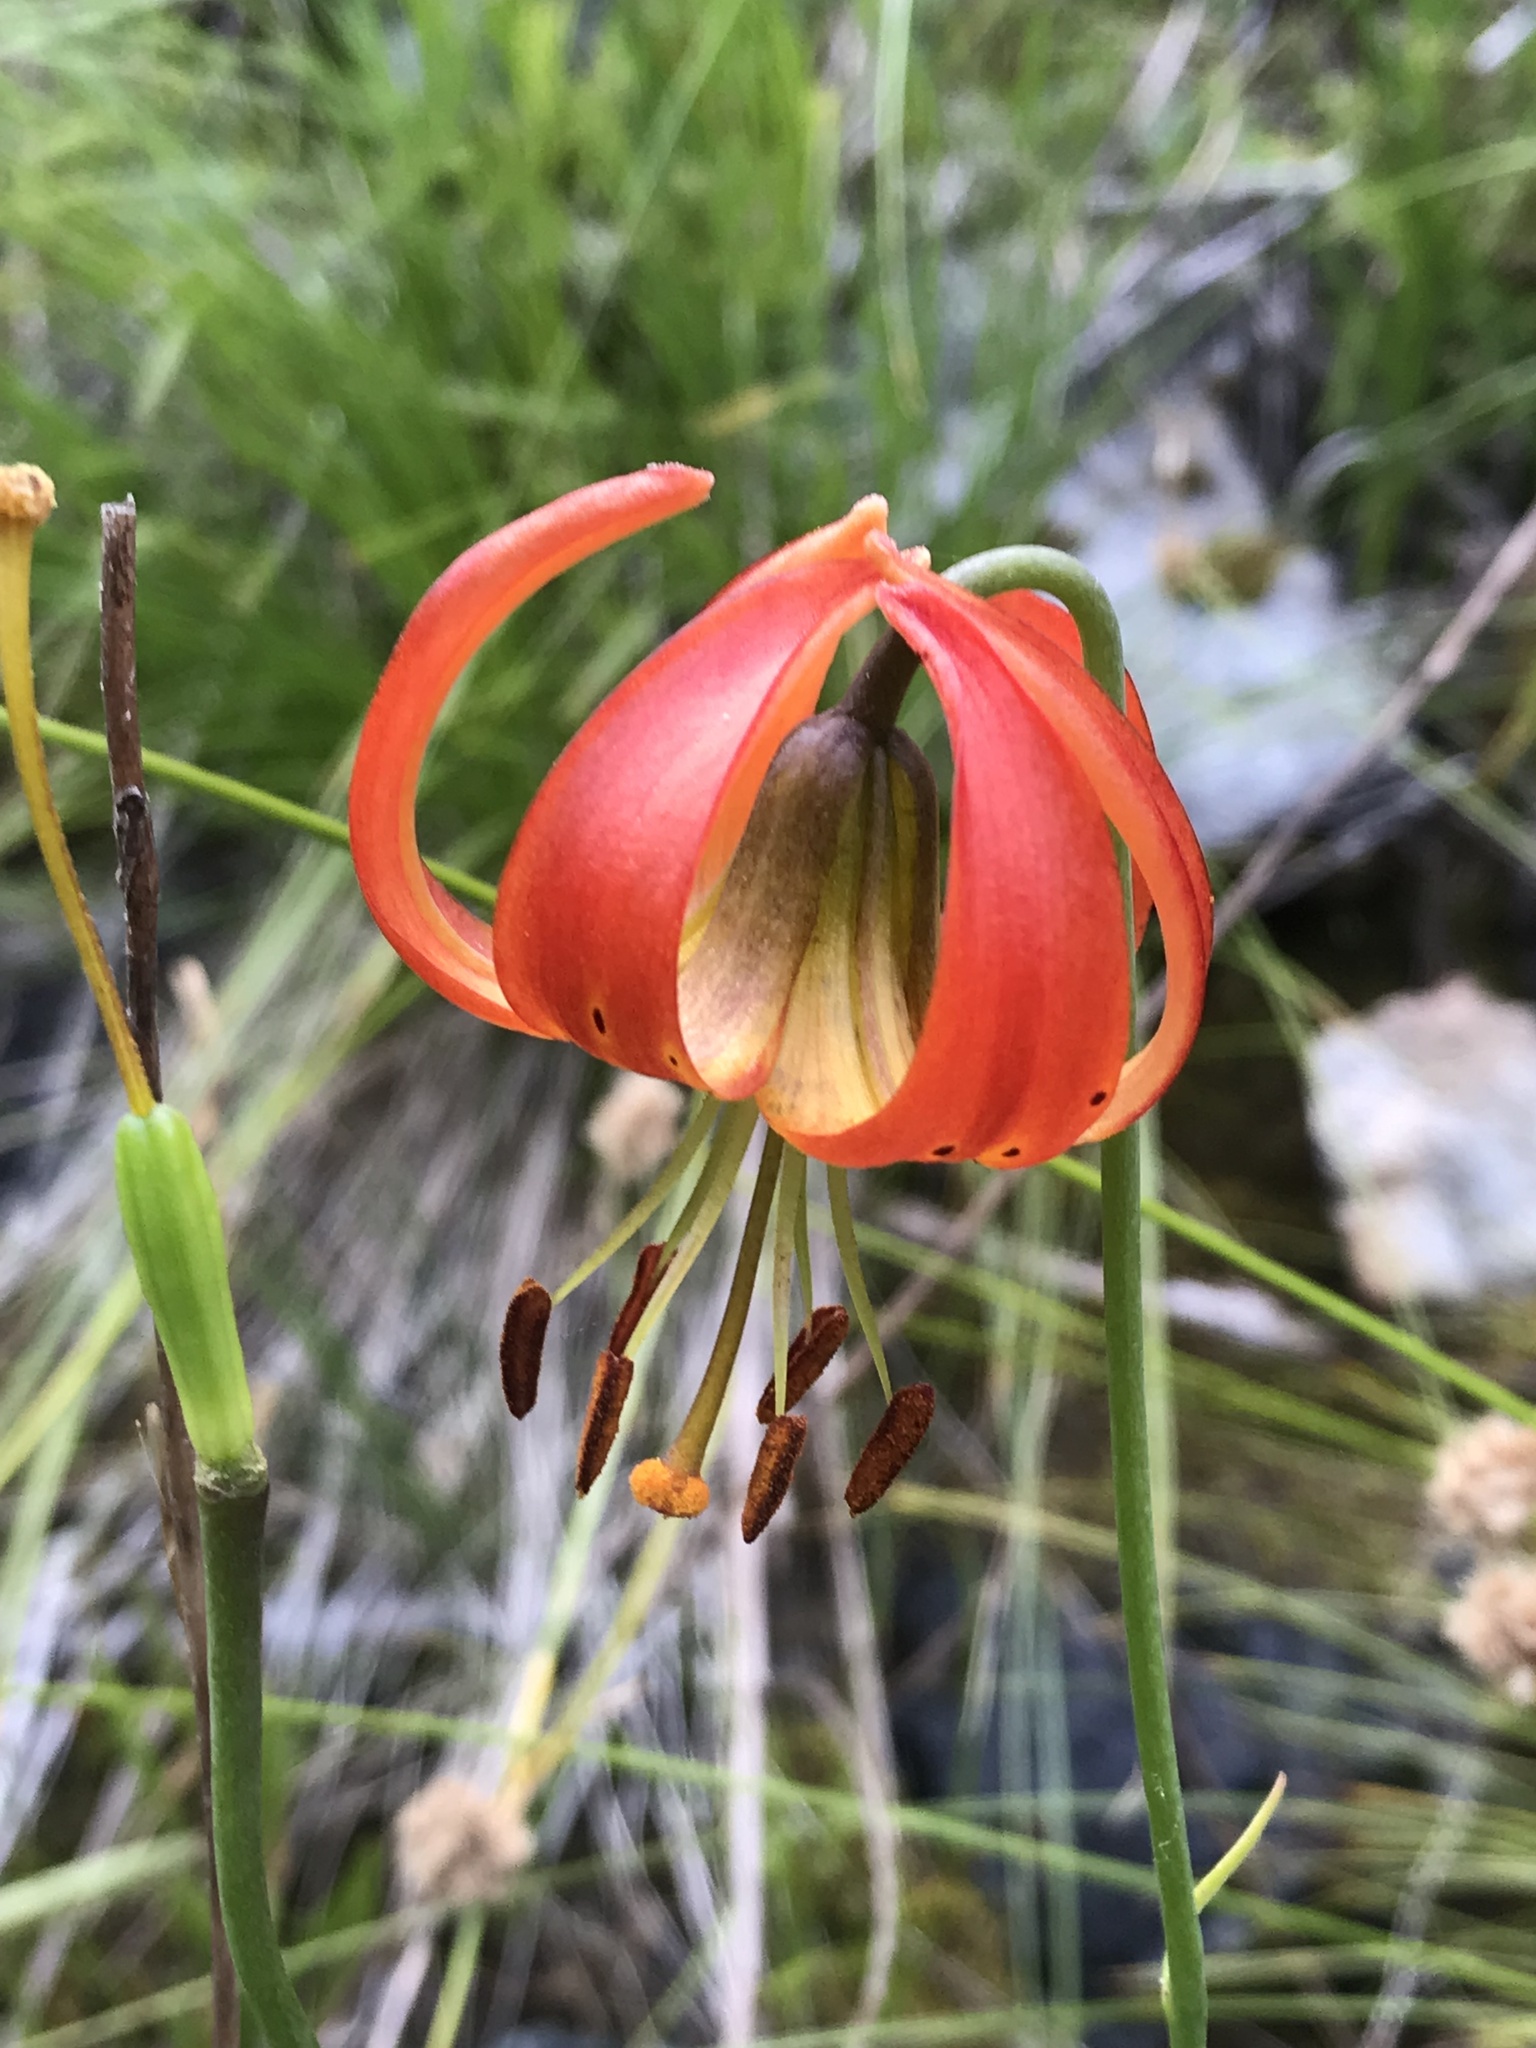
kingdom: Plantae
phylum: Tracheophyta
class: Liliopsida
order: Liliales
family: Liliaceae
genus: Lilium
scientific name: Lilium pardalinum
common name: Panther lily
